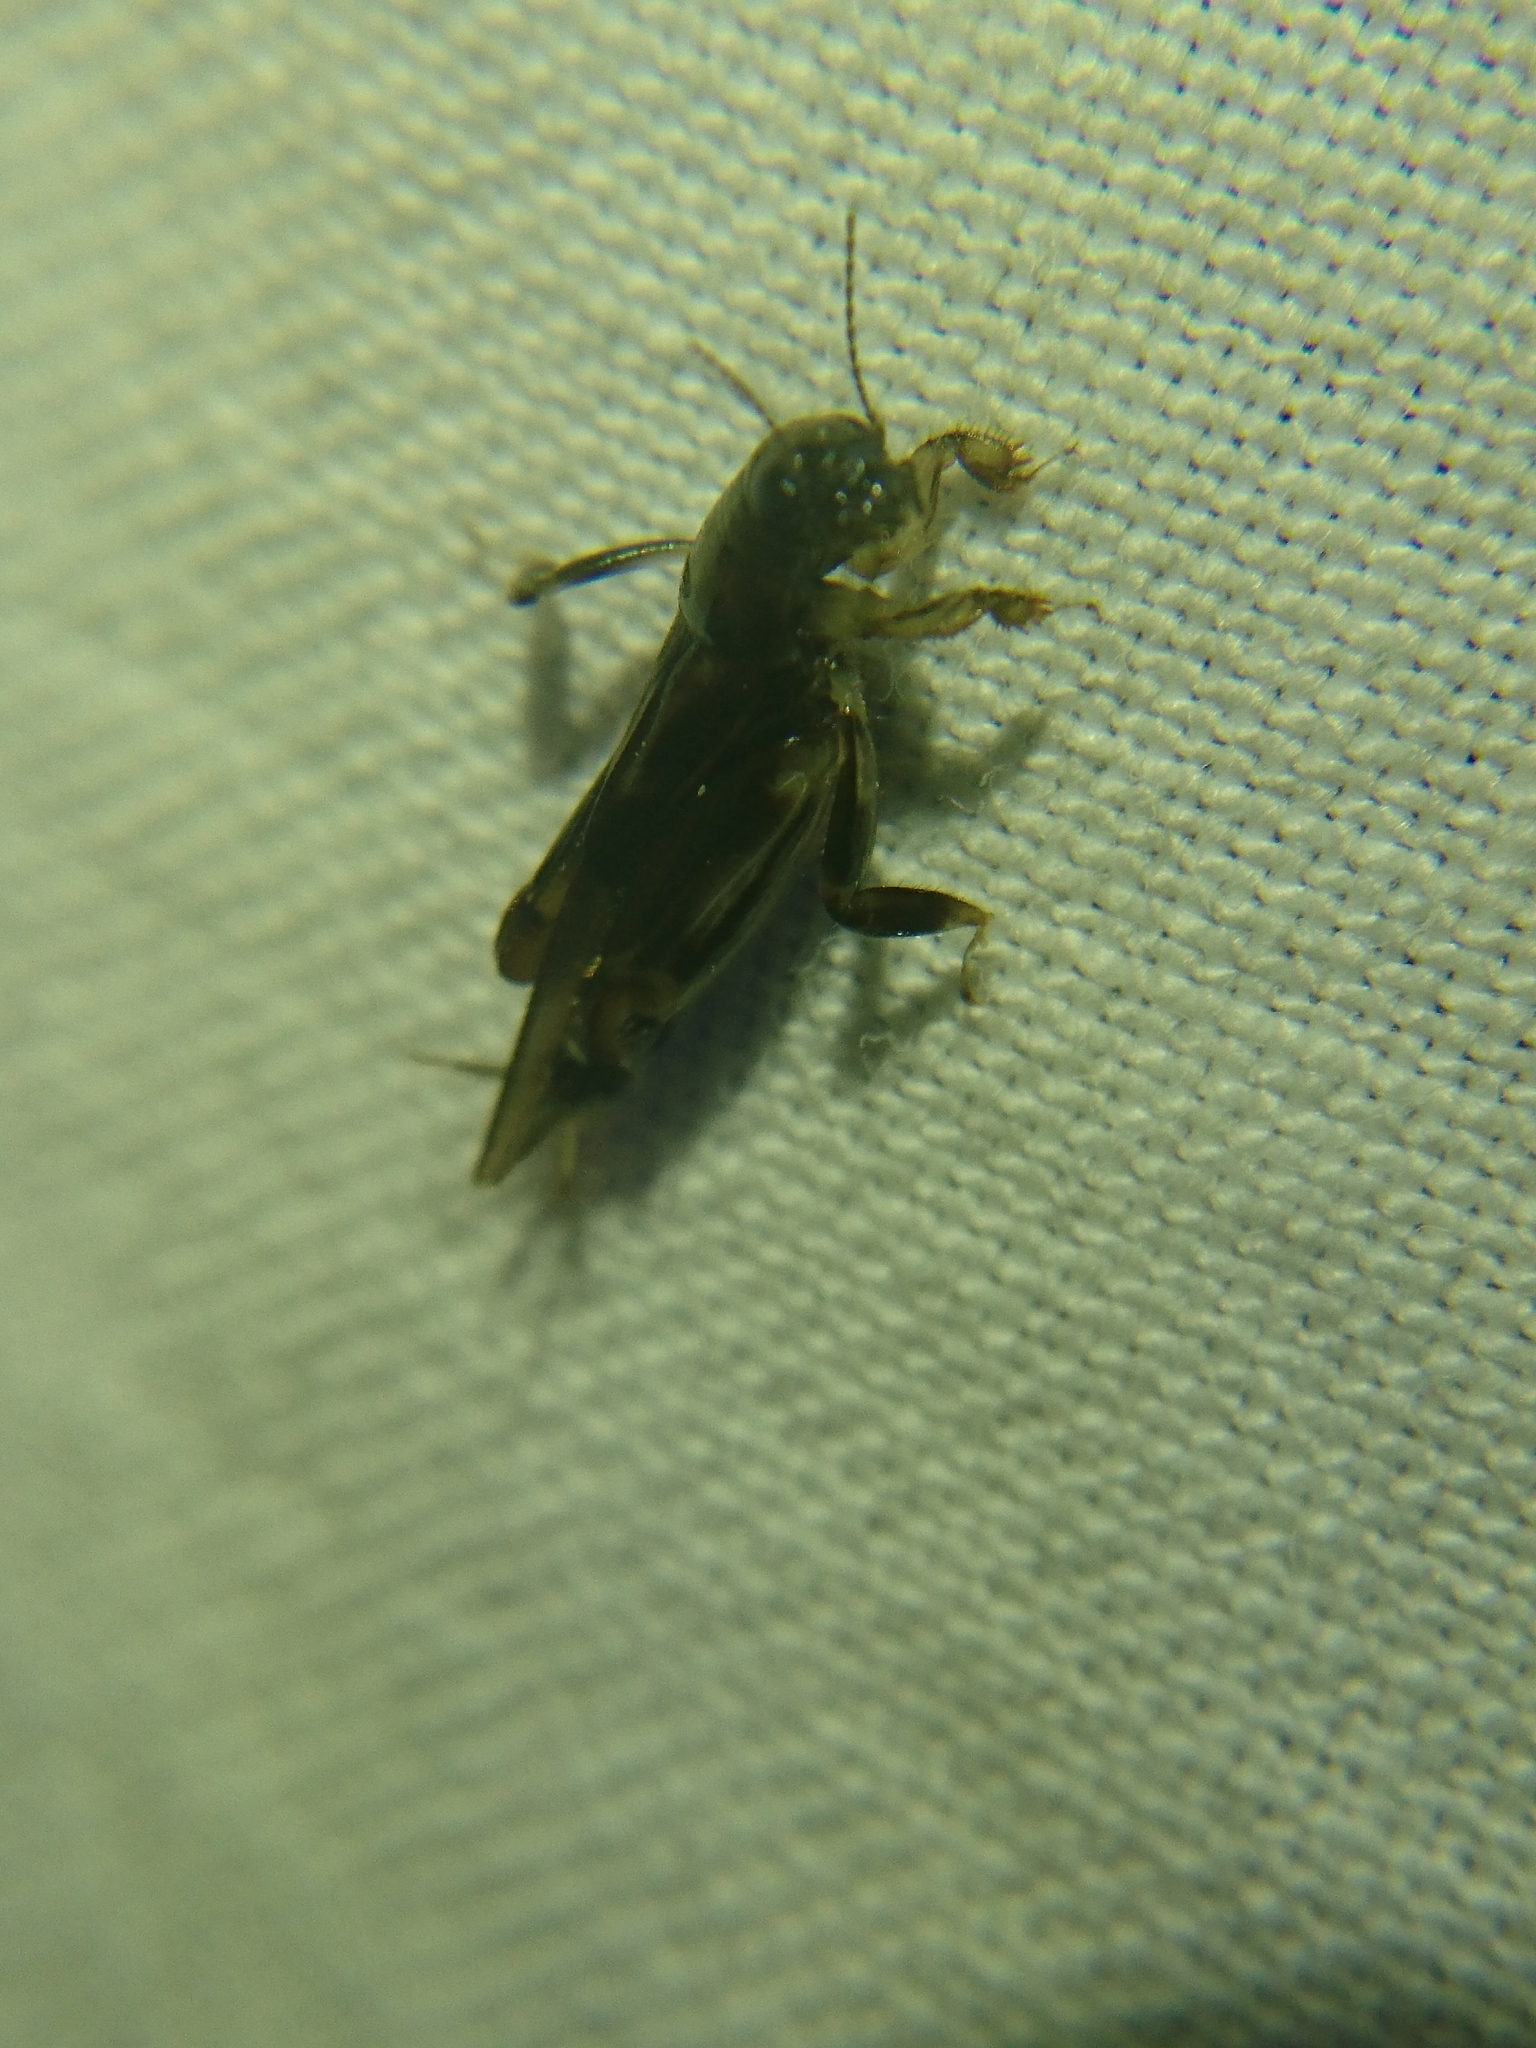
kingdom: Animalia
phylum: Arthropoda
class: Insecta
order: Orthoptera
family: Tridactylidae
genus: Neotridactylus
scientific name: Neotridactylus apicialis
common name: Larger pygmy locust
